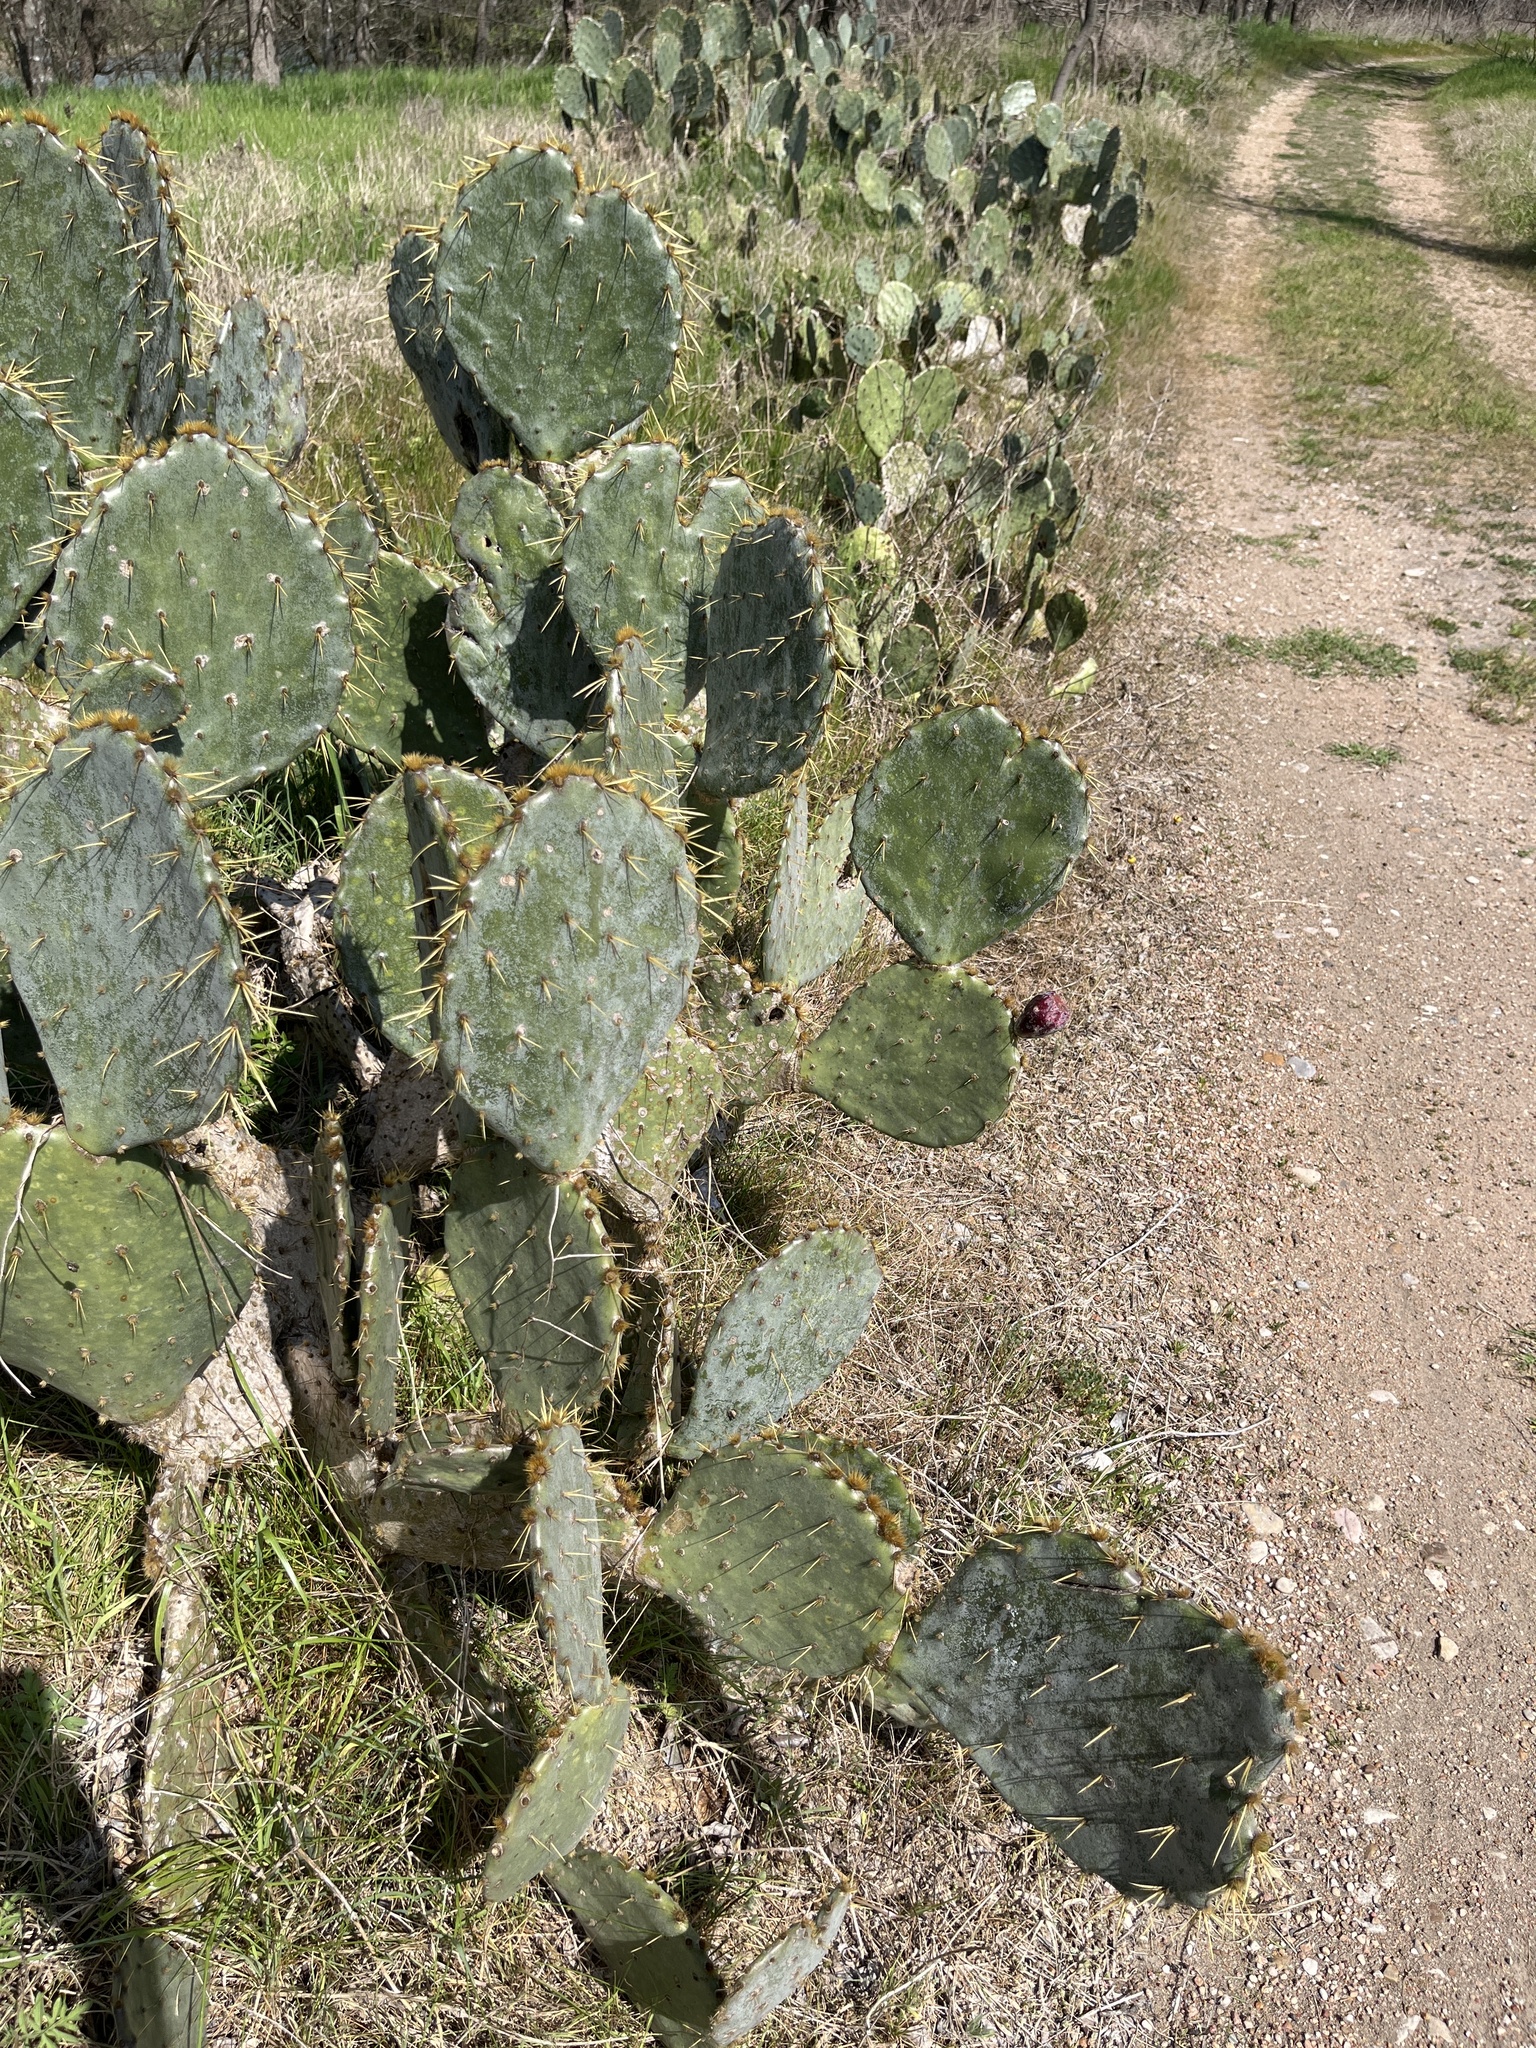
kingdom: Plantae
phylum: Tracheophyta
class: Magnoliopsida
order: Caryophyllales
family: Cactaceae
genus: Opuntia
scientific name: Opuntia engelmannii
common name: Cactus-apple
